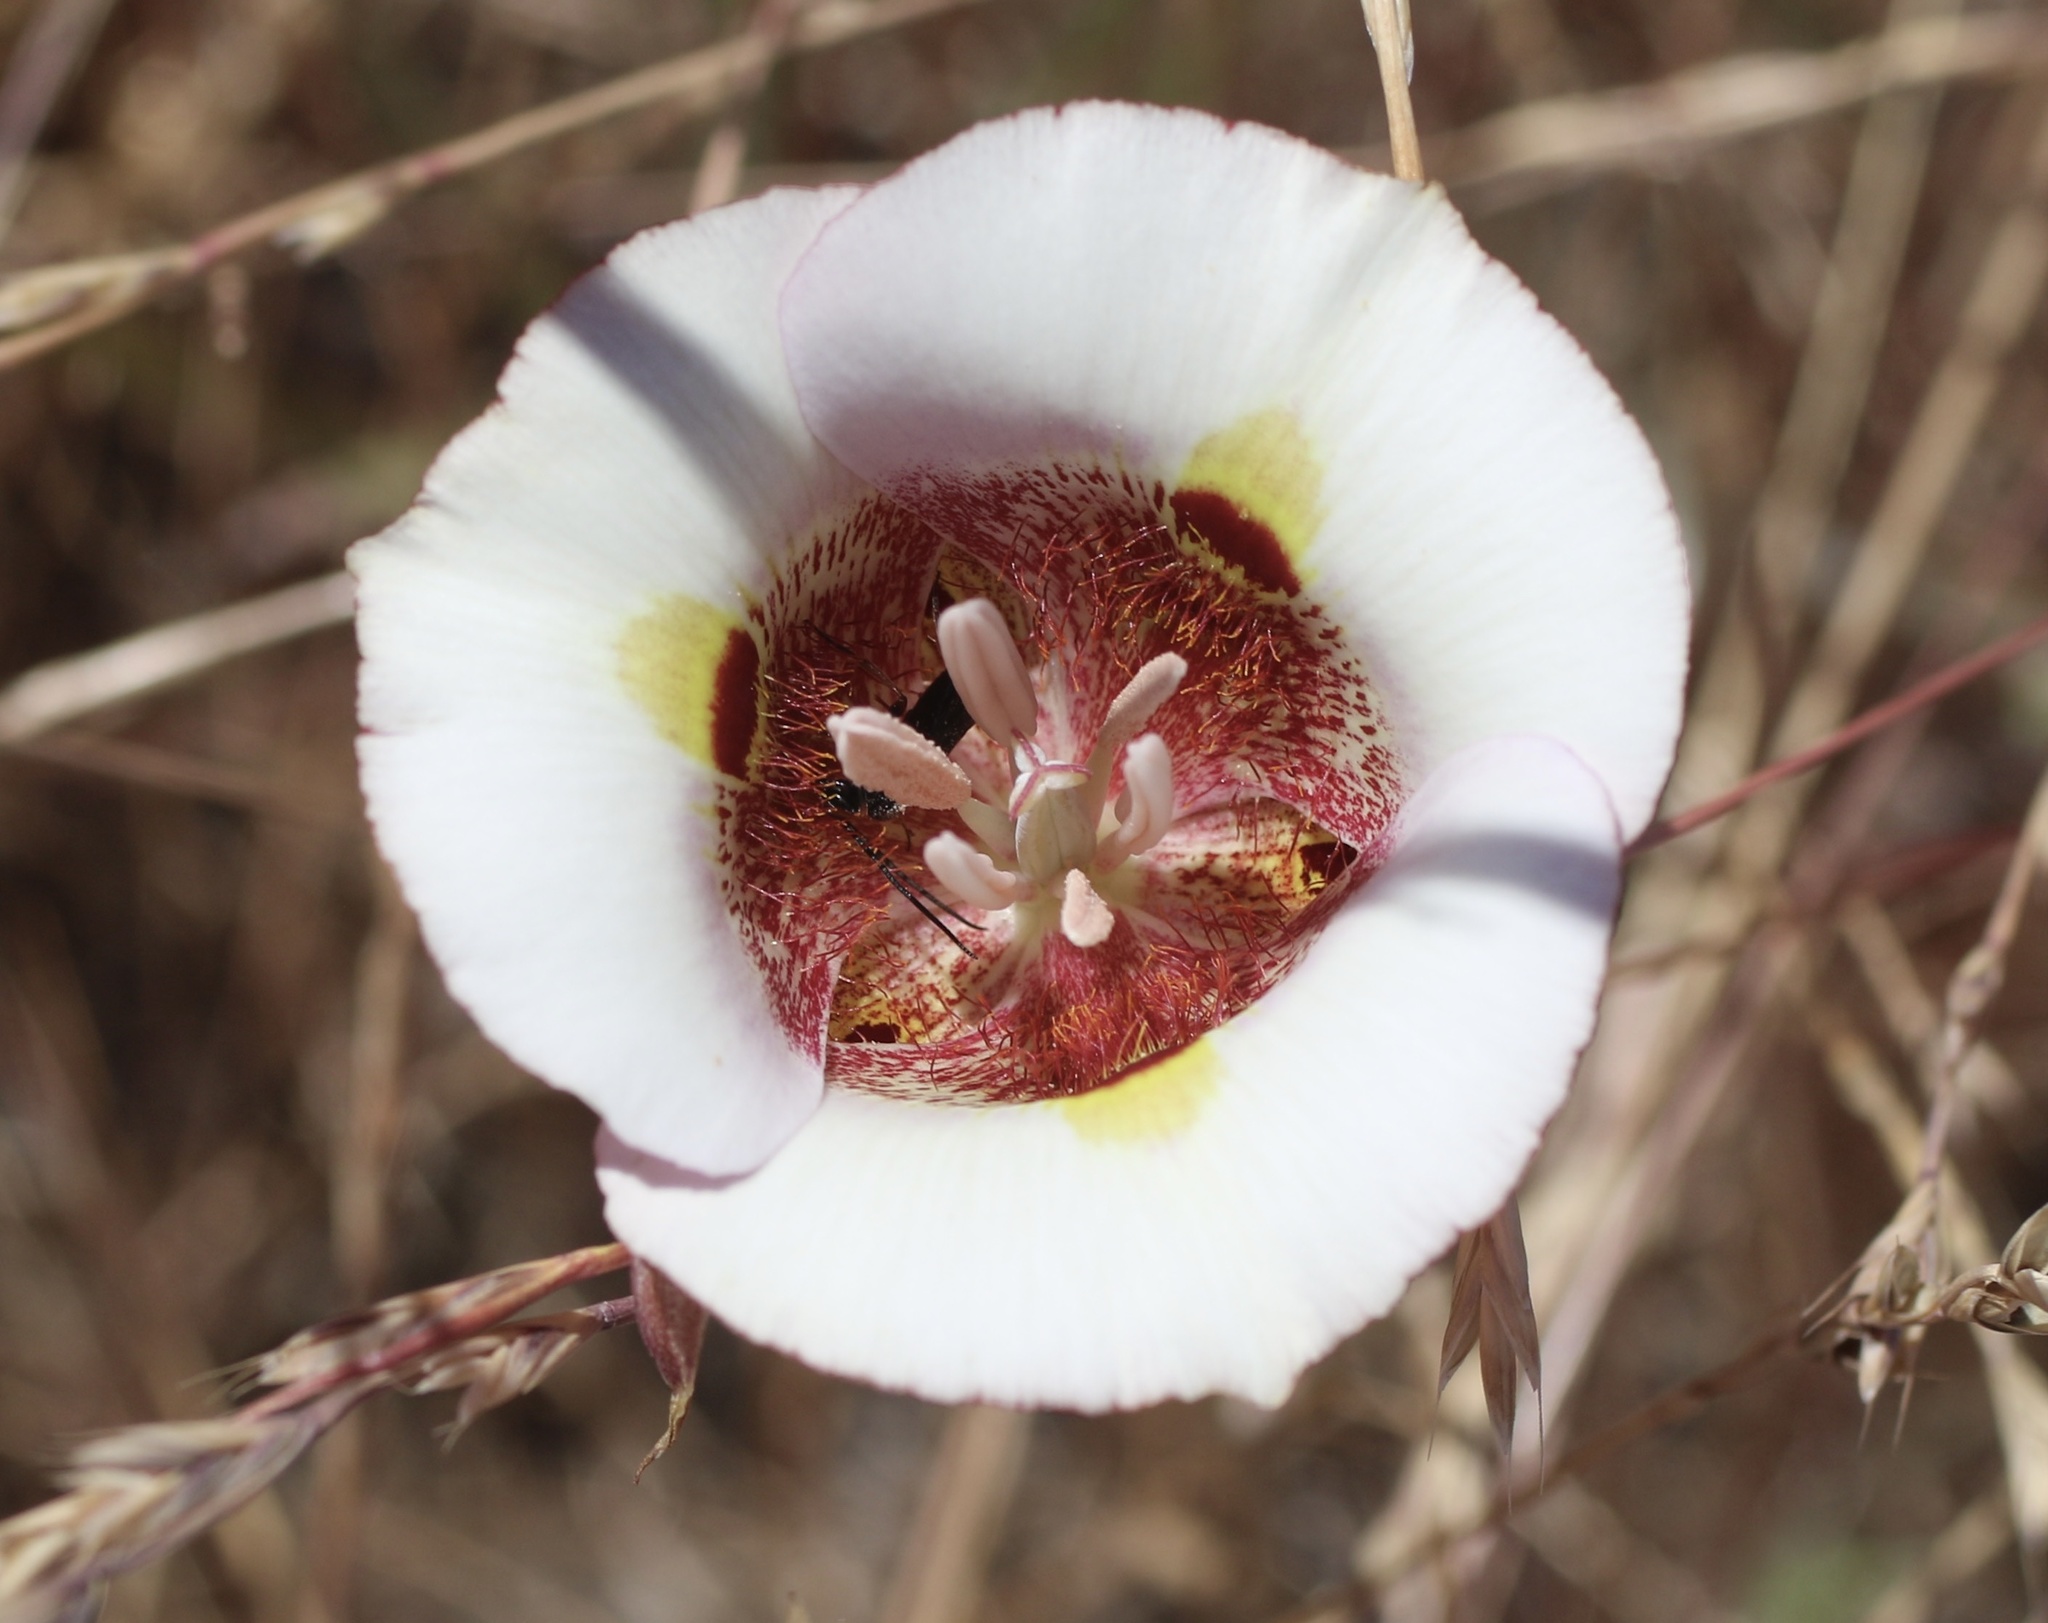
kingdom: Plantae
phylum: Tracheophyta
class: Liliopsida
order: Liliales
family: Liliaceae
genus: Calochortus
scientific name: Calochortus argillosus
